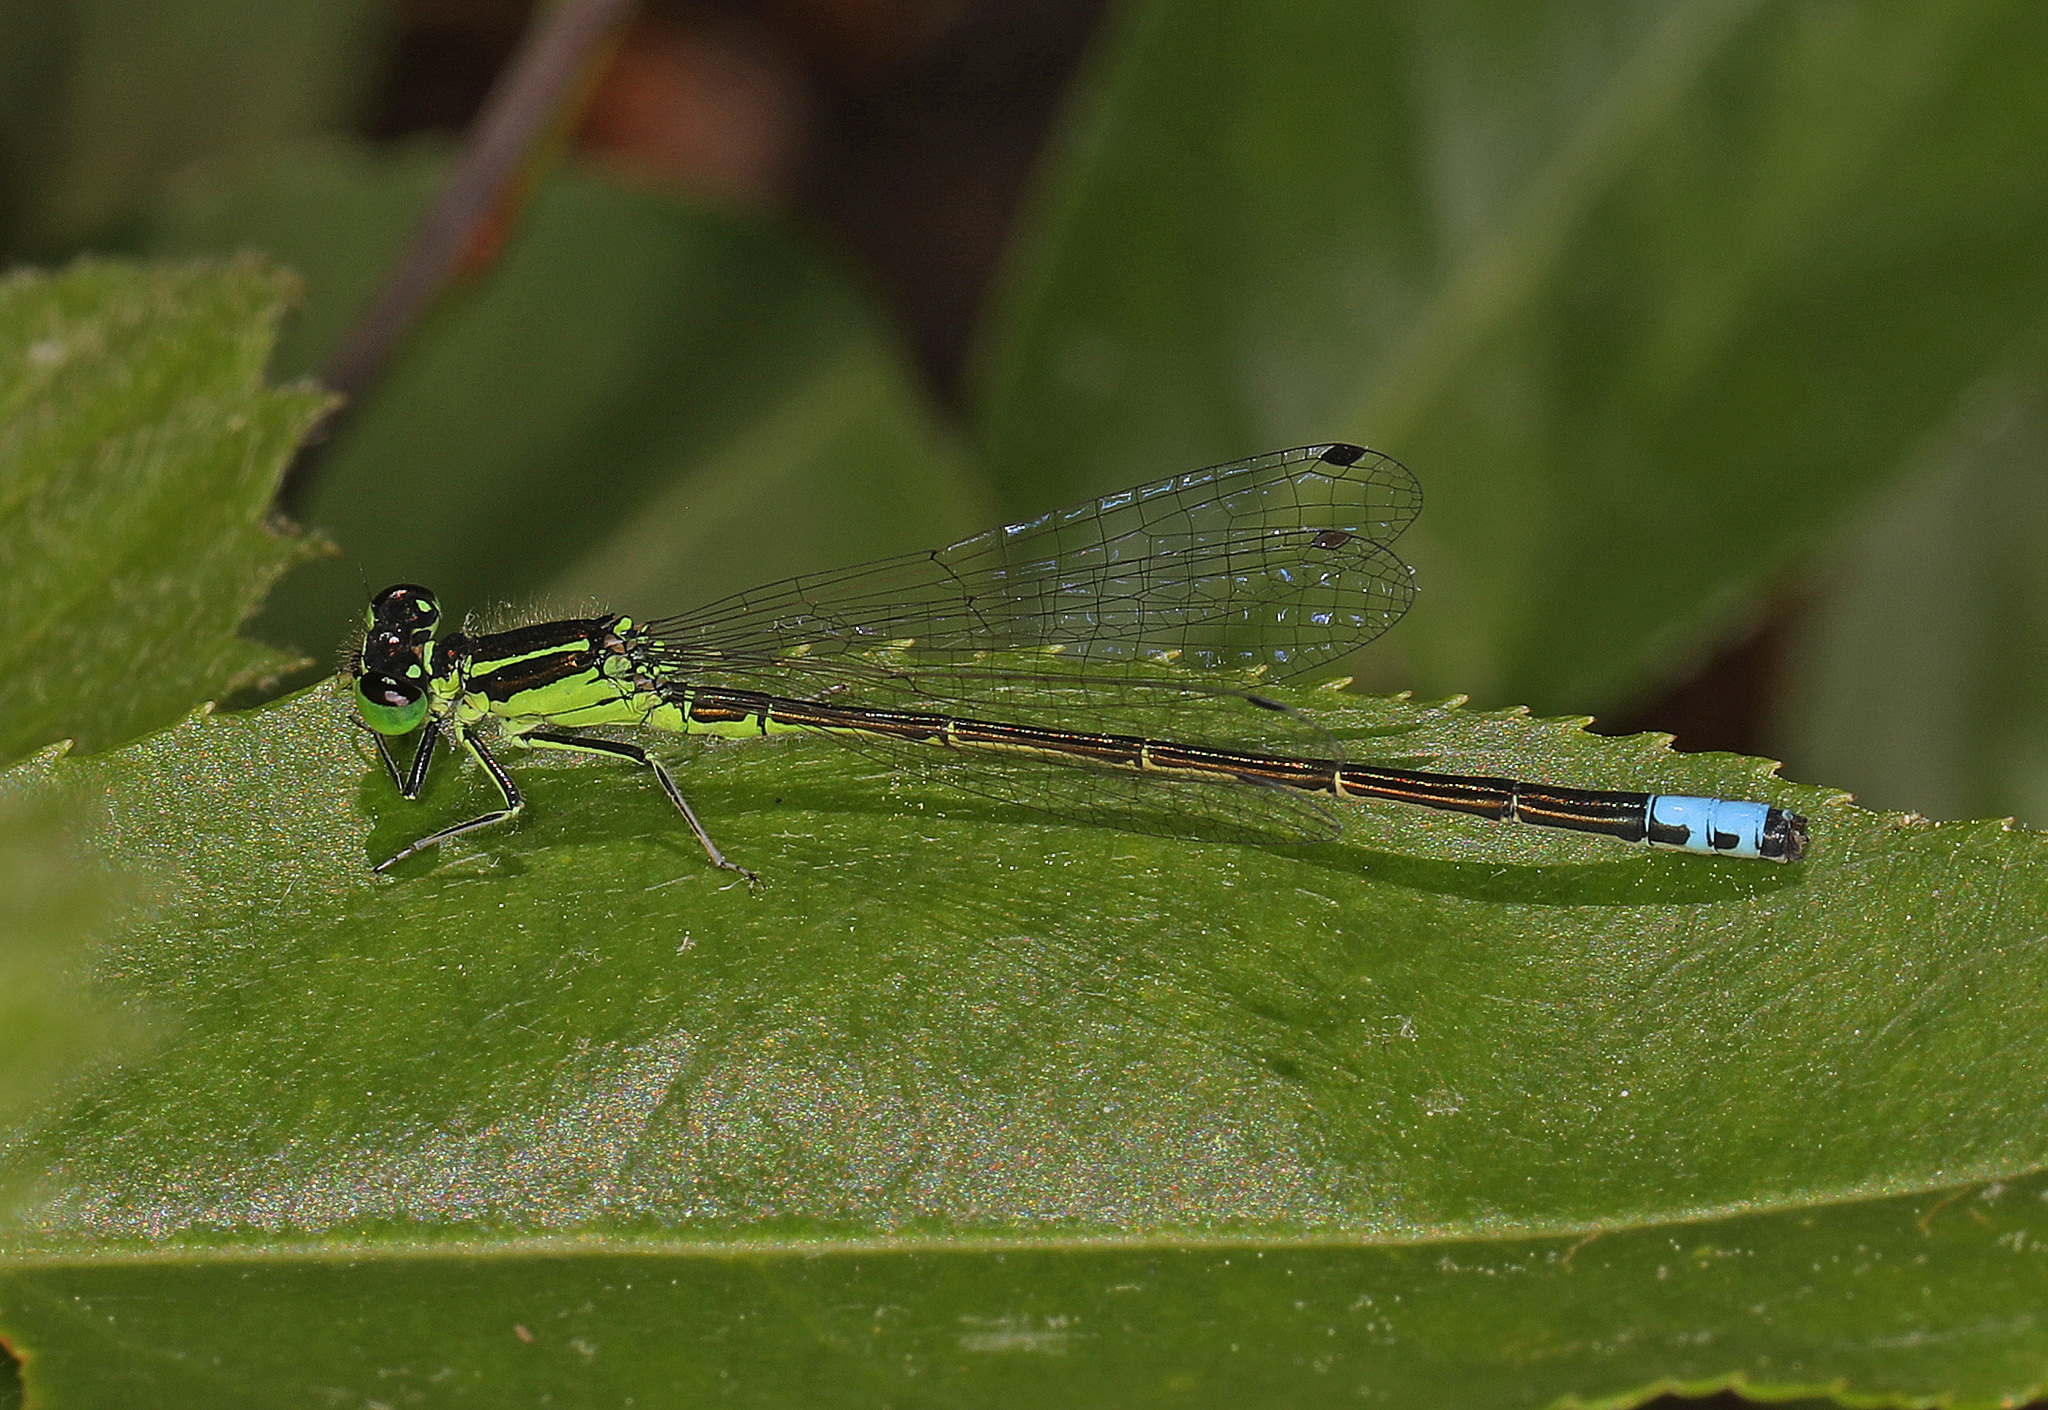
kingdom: Animalia
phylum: Arthropoda
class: Insecta
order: Odonata
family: Coenagrionidae
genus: Ischnura
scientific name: Ischnura verticalis
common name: Eastern forktail
